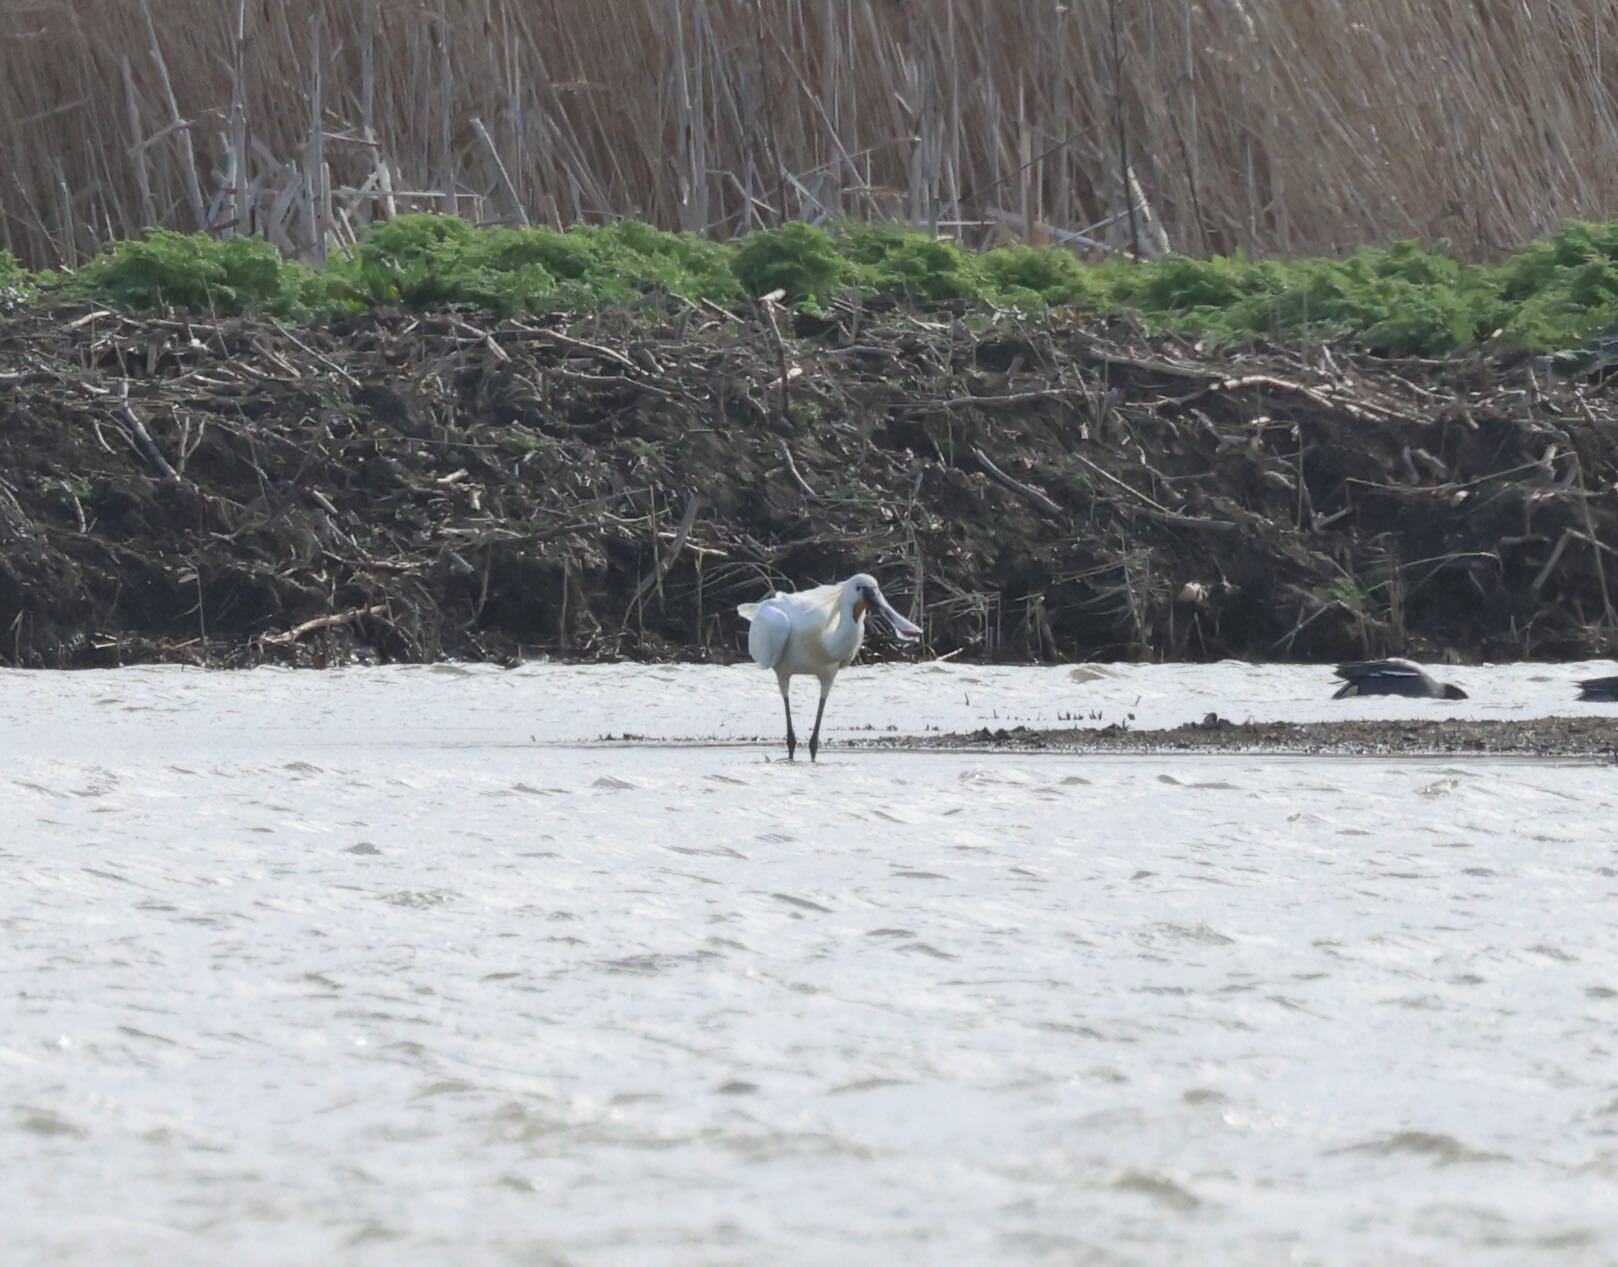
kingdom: Animalia
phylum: Chordata
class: Aves
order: Pelecaniformes
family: Threskiornithidae
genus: Platalea
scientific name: Platalea leucorodia
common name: Eurasian spoonbill
